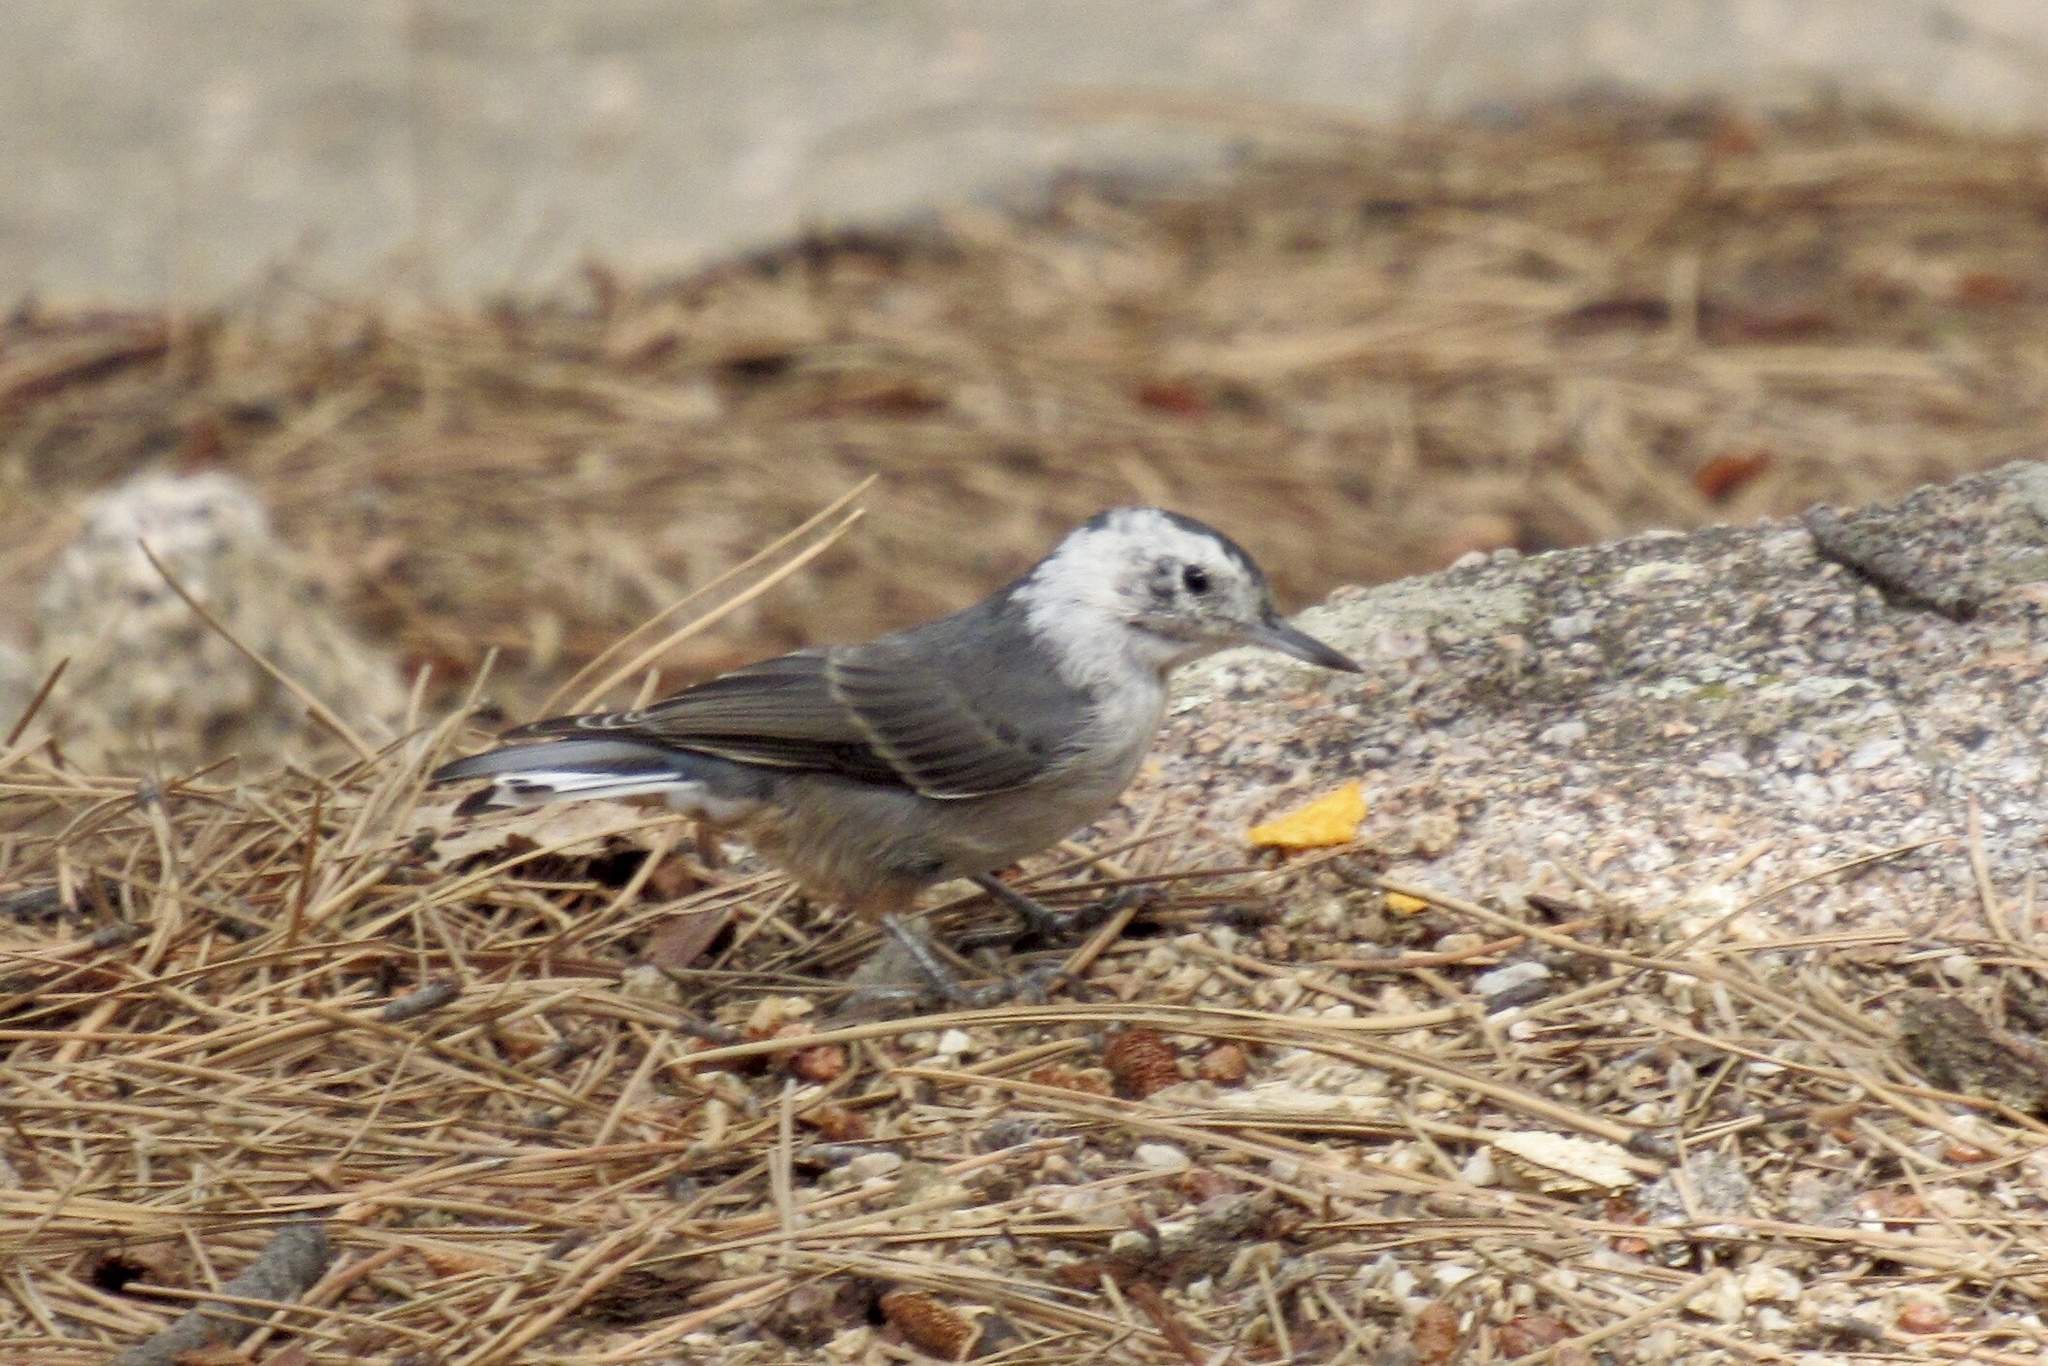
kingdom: Animalia
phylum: Chordata
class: Aves
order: Passeriformes
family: Sittidae
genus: Sitta
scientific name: Sitta carolinensis
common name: White-breasted nuthatch
